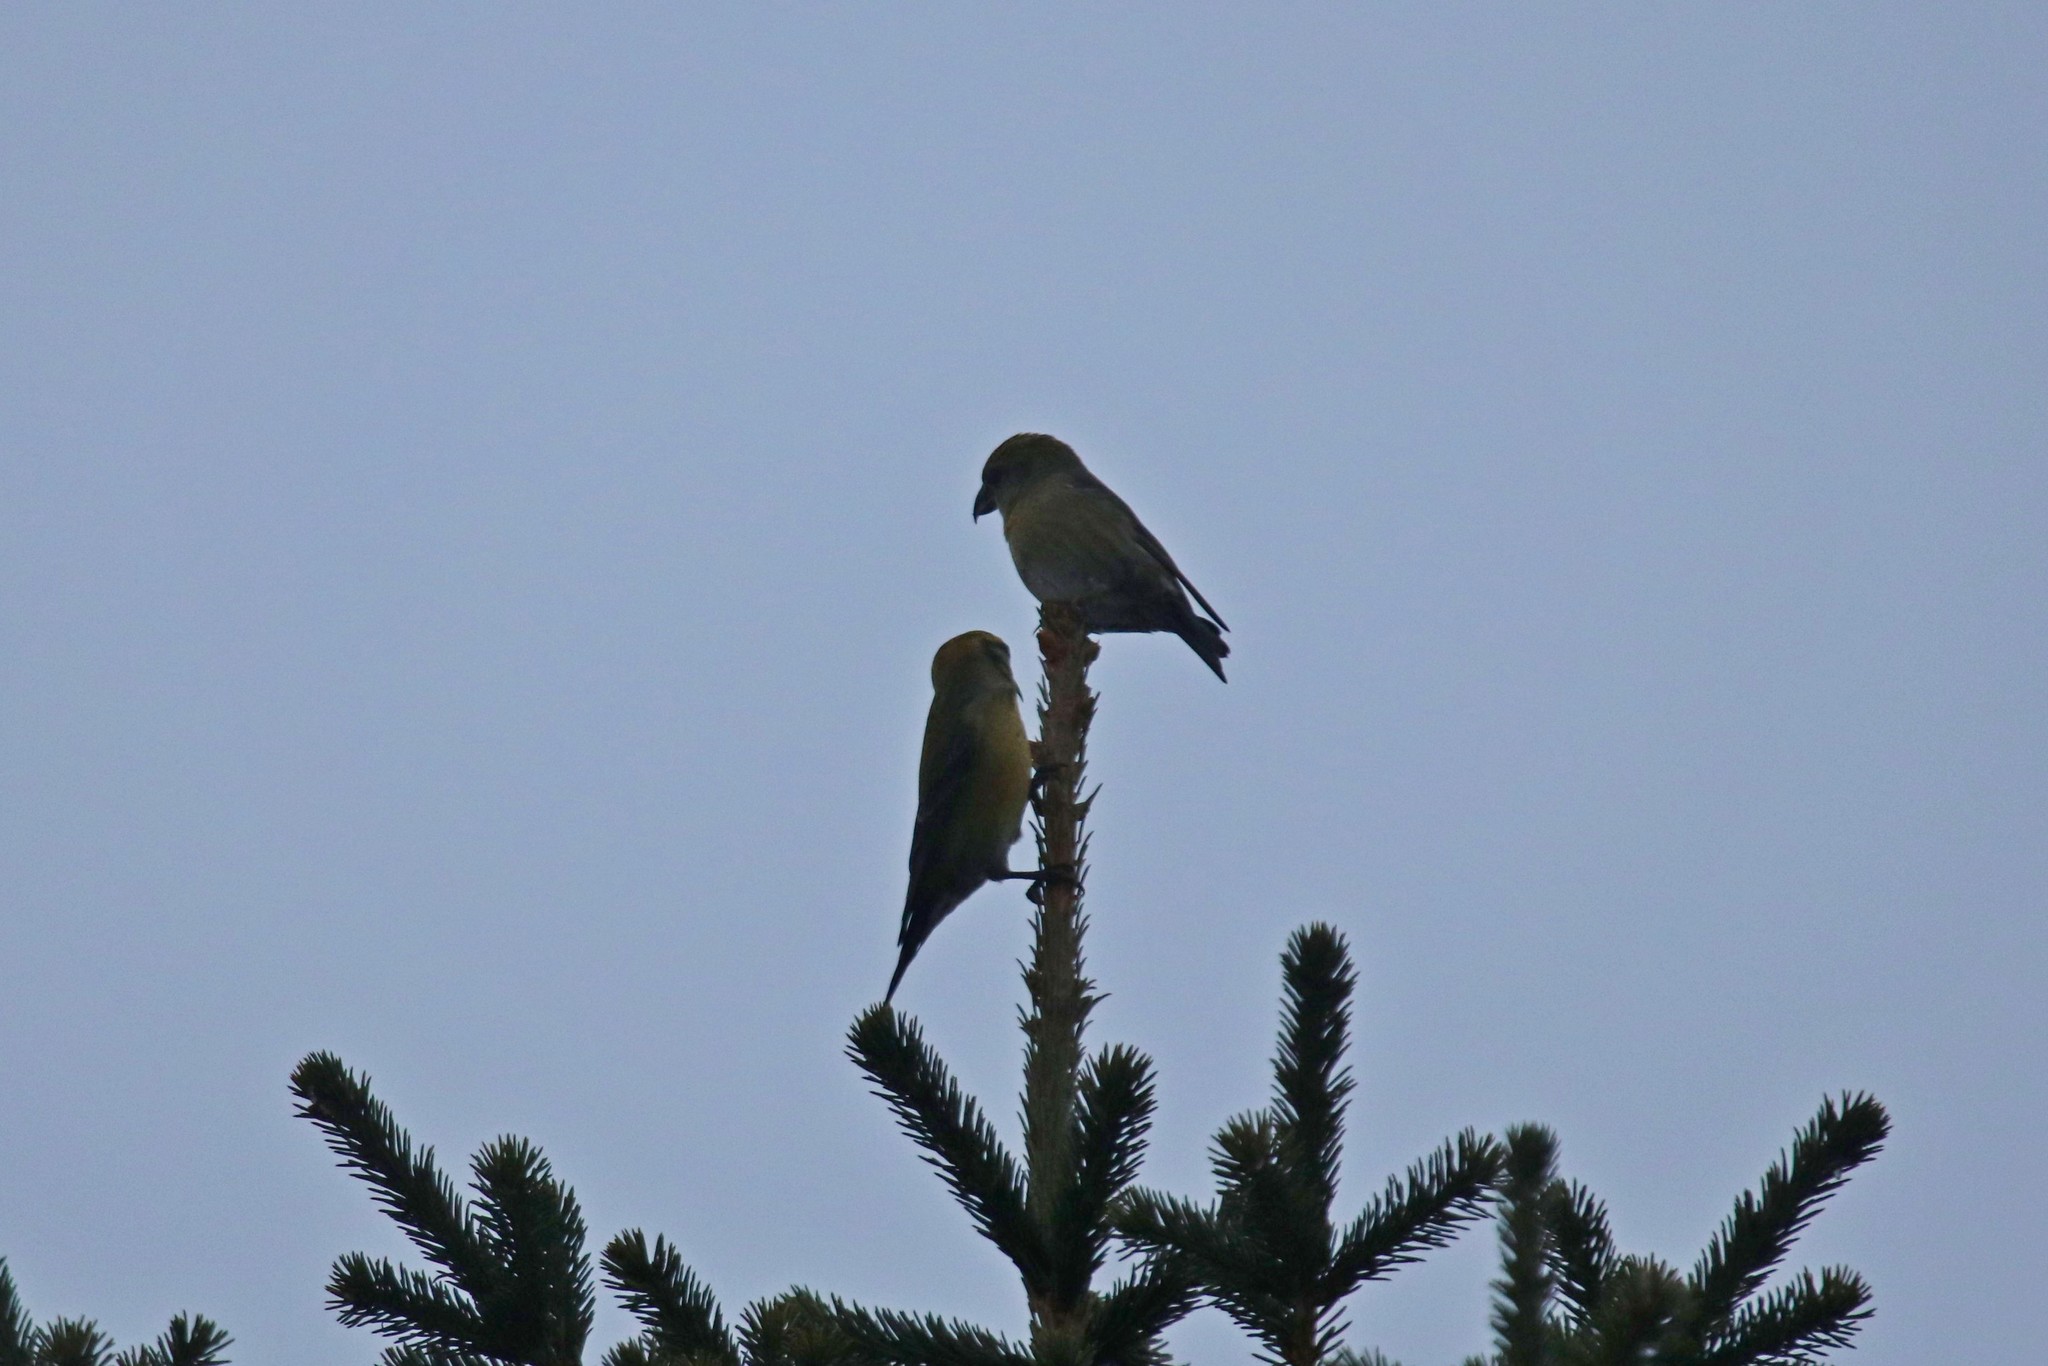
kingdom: Animalia
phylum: Chordata
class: Aves
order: Passeriformes
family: Fringillidae
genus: Loxia
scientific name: Loxia curvirostra
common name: Red crossbill
